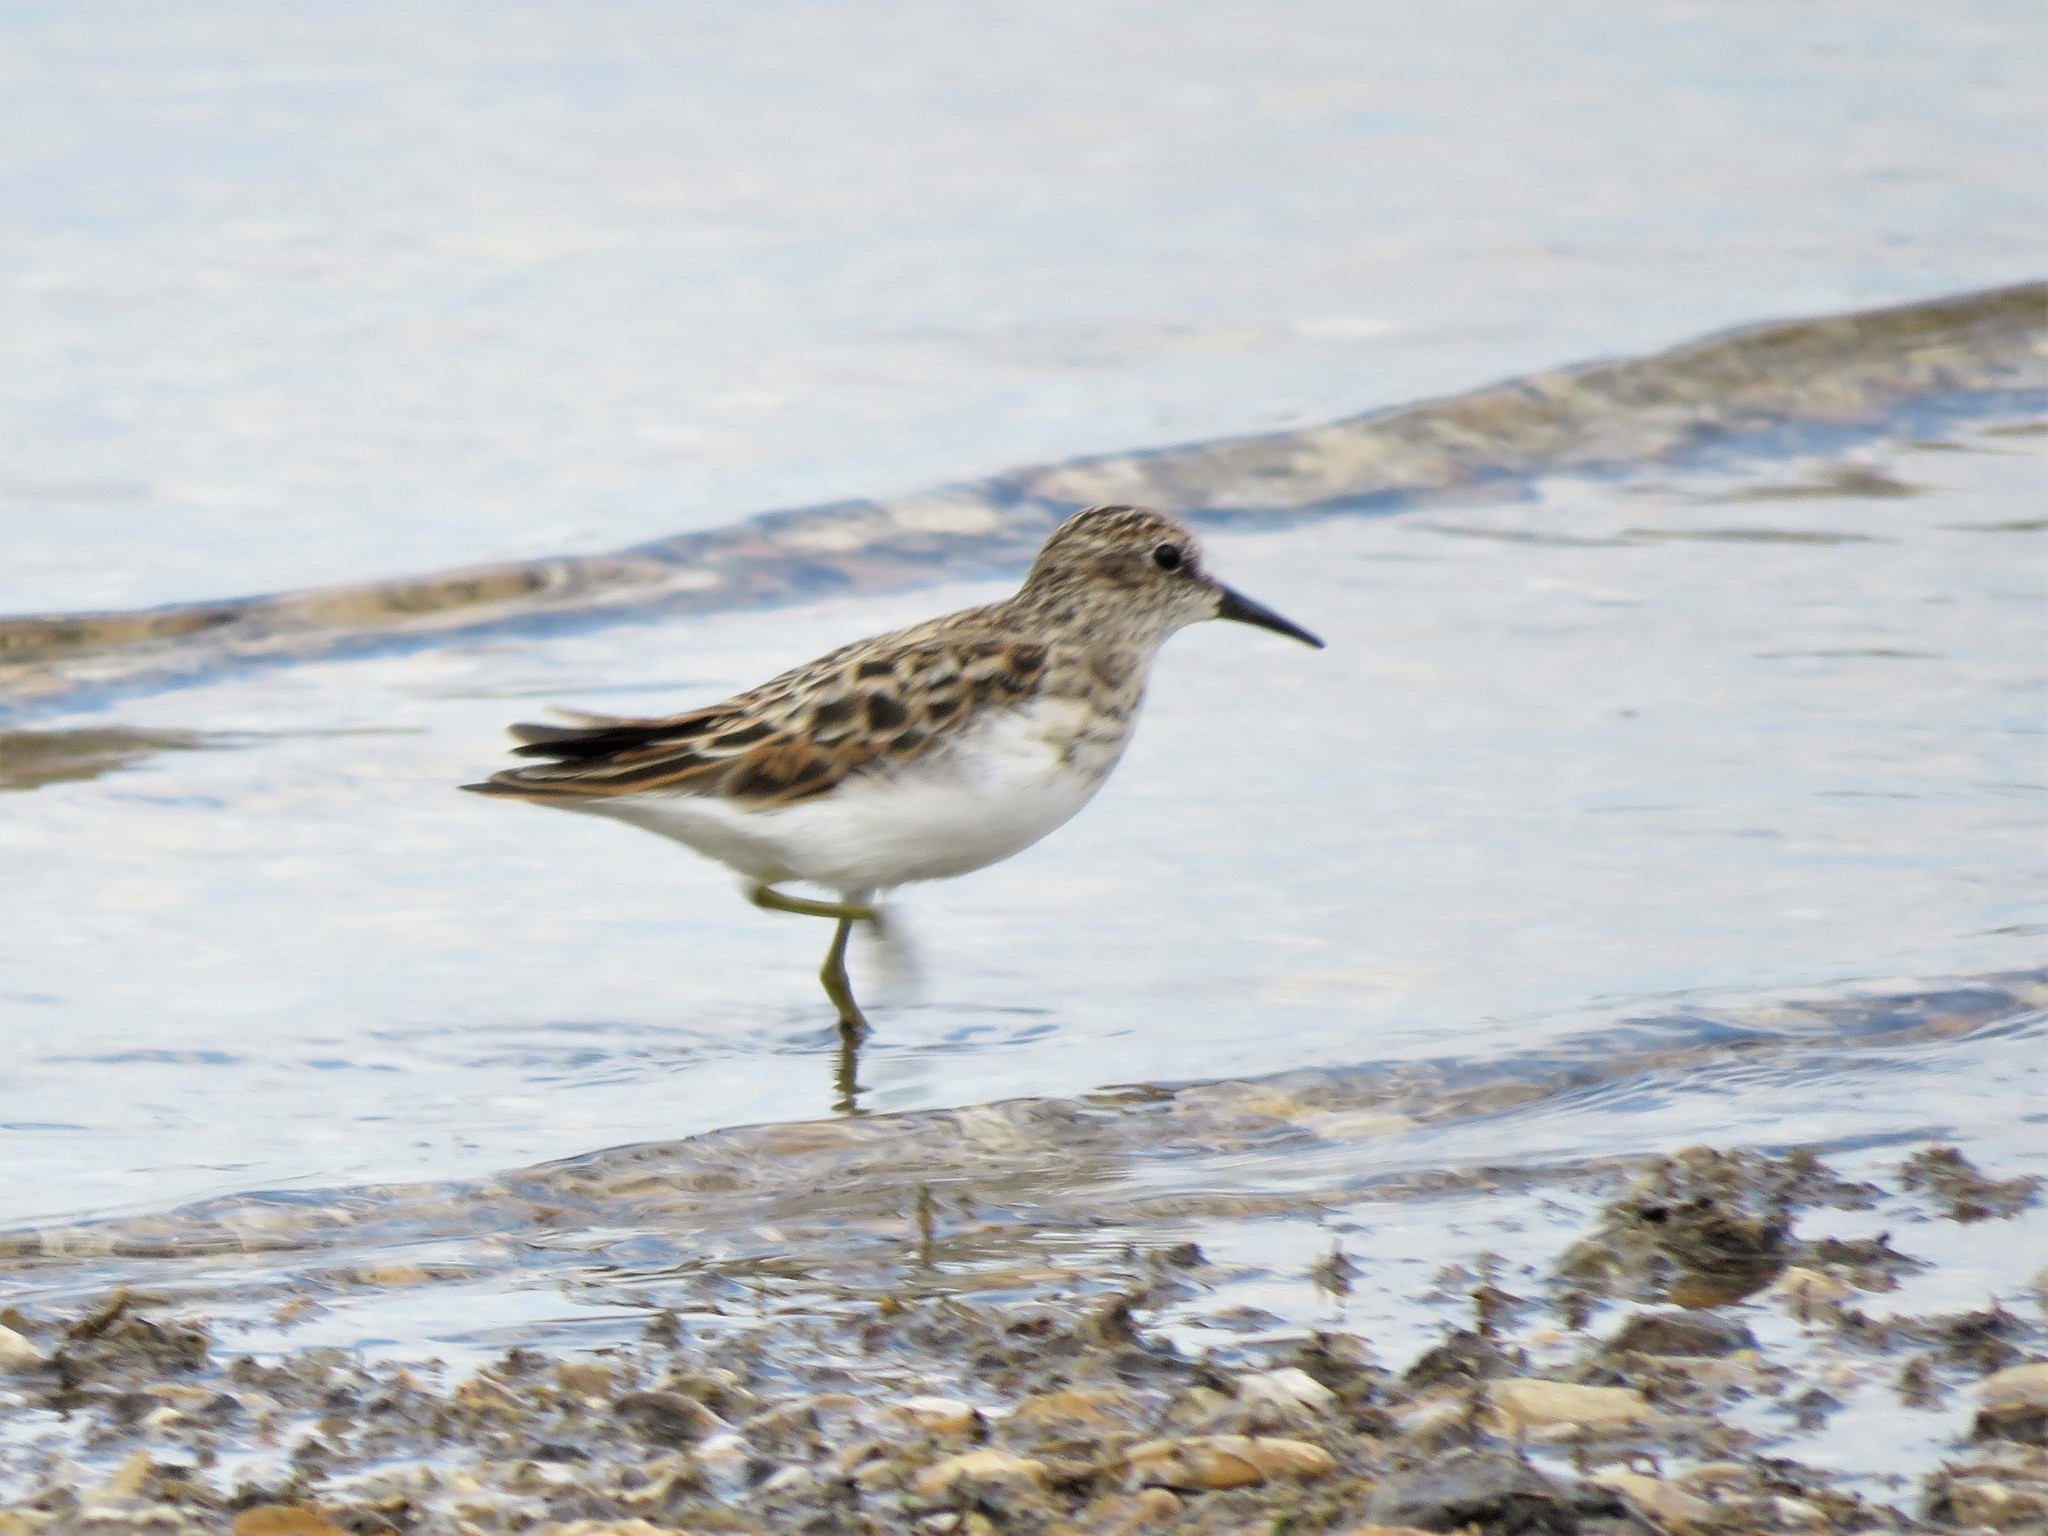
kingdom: Animalia
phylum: Chordata
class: Aves
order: Charadriiformes
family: Scolopacidae
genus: Calidris
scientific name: Calidris minutilla
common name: Least sandpiper
